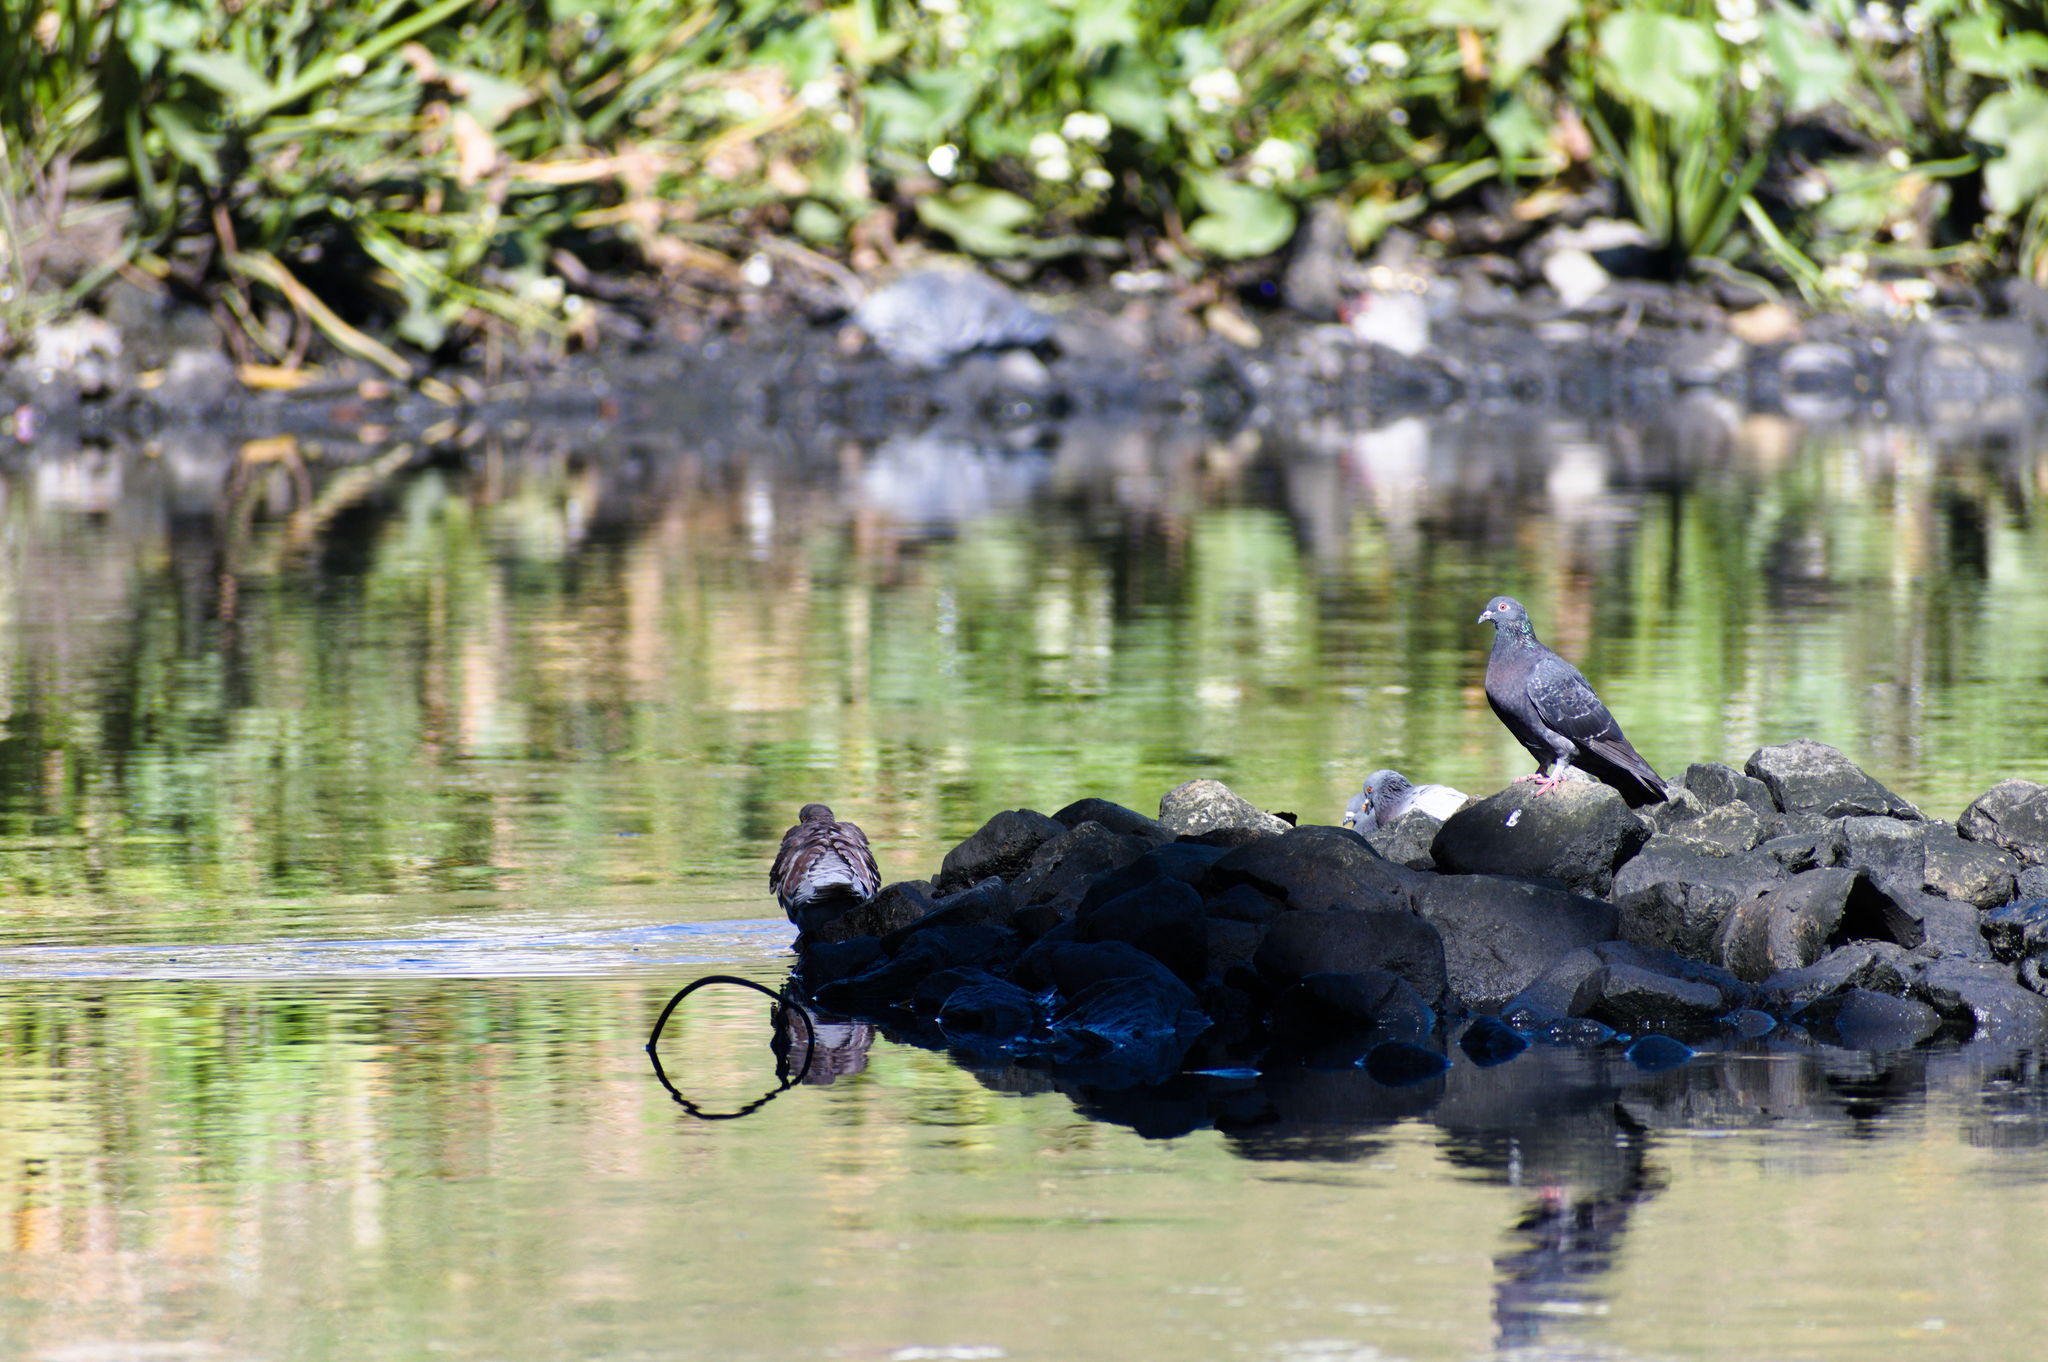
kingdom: Animalia
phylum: Chordata
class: Aves
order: Columbiformes
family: Columbidae
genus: Columba
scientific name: Columba livia
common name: Rock pigeon
